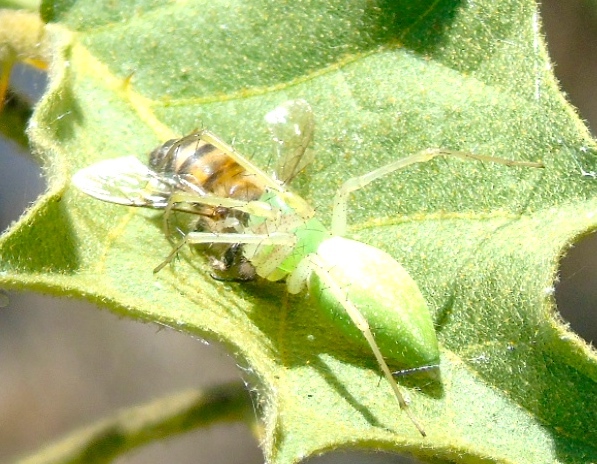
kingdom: Animalia
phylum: Arthropoda
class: Arachnida
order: Araneae
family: Oxyopidae
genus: Peucetia
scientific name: Peucetia viridans
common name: Lynx spiders
